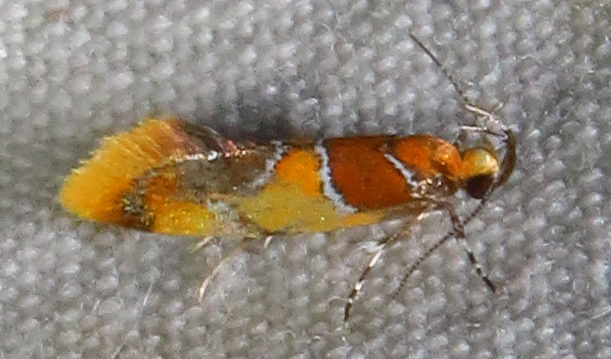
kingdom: Animalia
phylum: Arthropoda
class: Insecta
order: Lepidoptera
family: Oecophoridae
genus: Callima
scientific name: Callima argenticinctella
